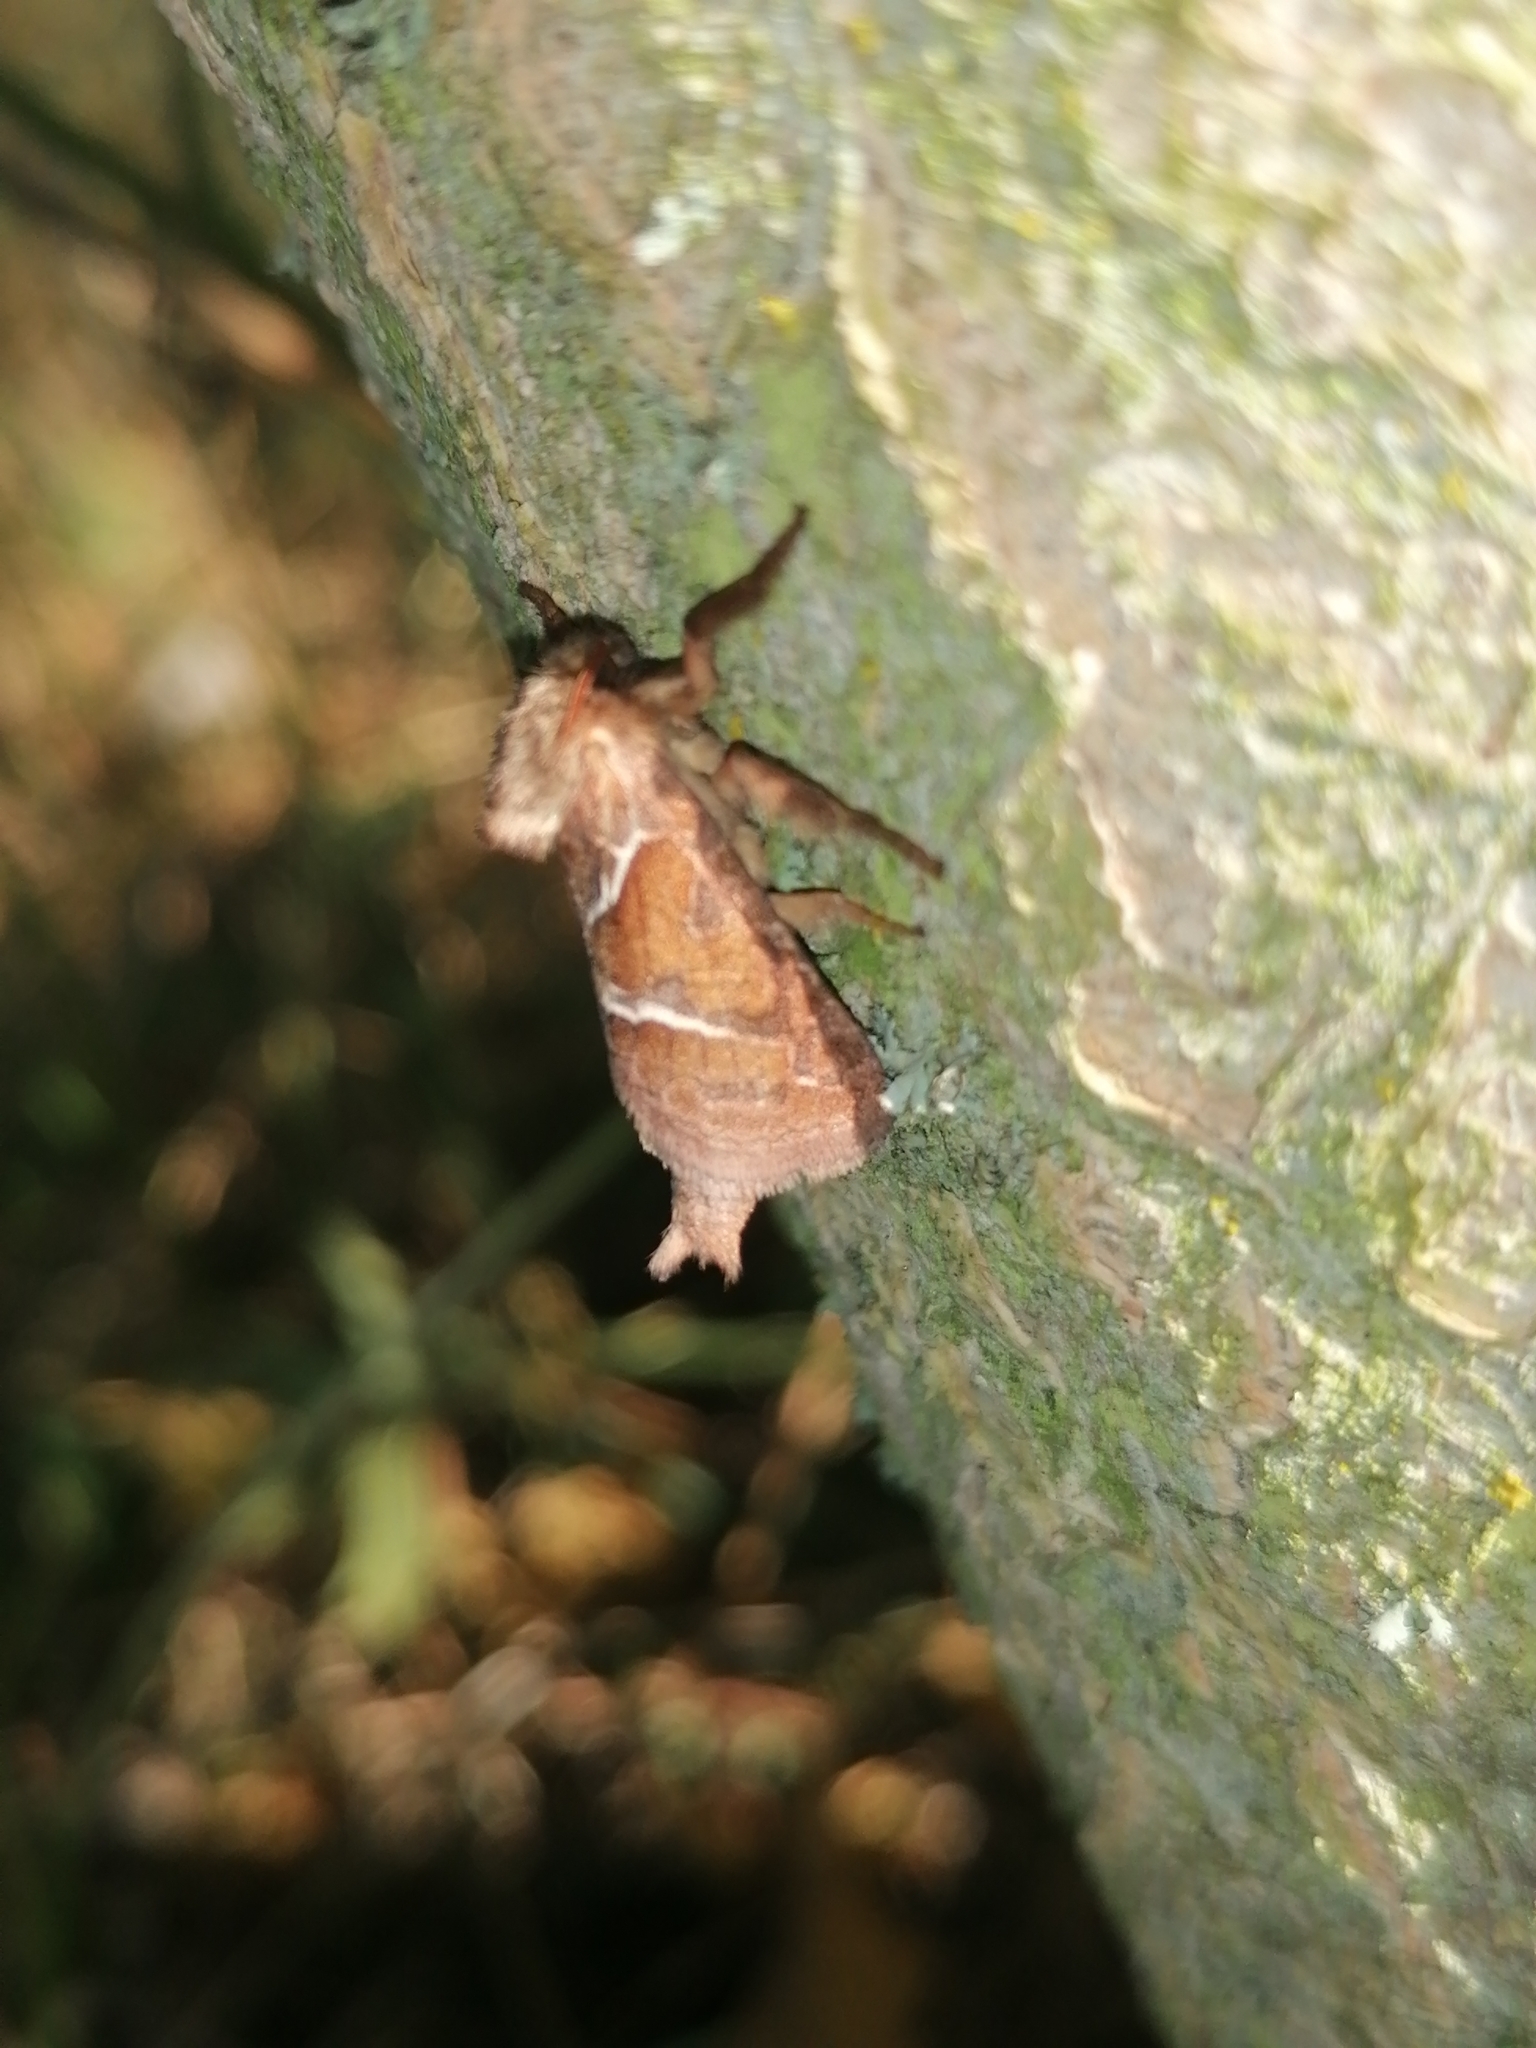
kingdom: Animalia
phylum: Arthropoda
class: Insecta
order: Lepidoptera
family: Hepialidae
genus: Triodia
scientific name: Triodia sylvina
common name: Orange swift
